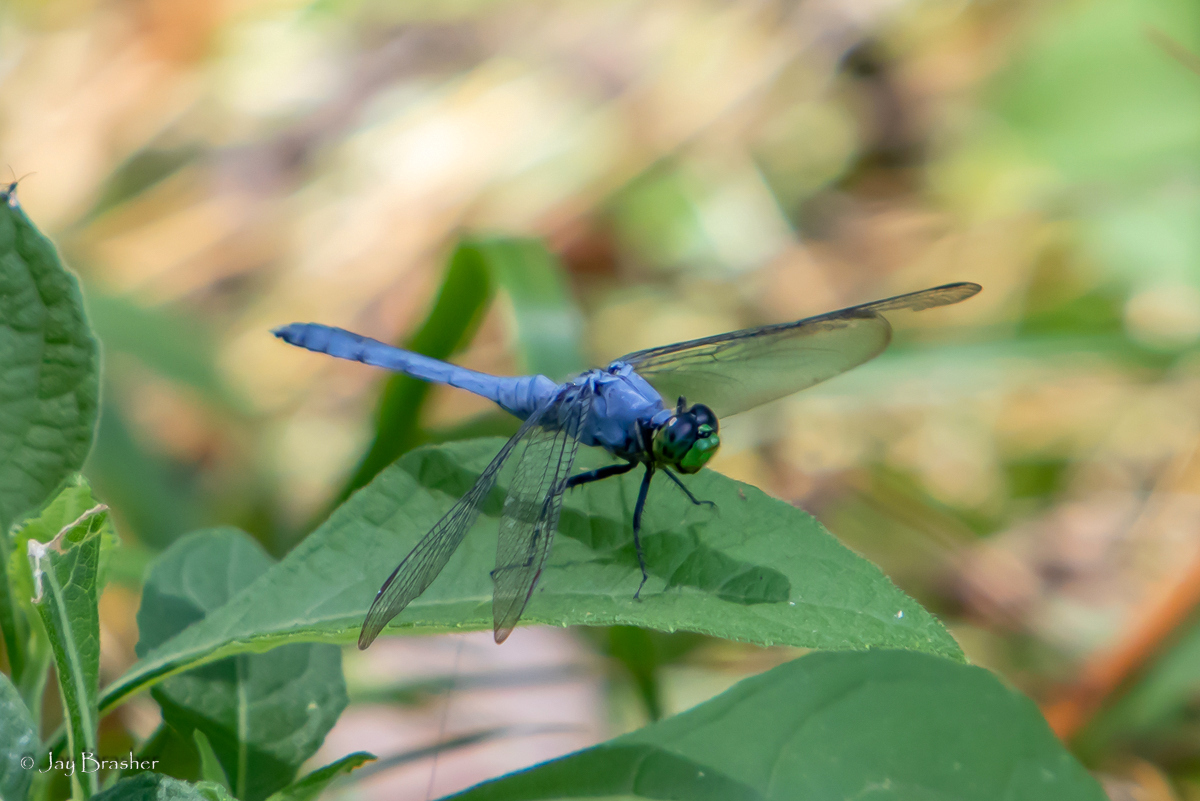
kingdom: Animalia
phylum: Arthropoda
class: Insecta
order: Odonata
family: Libellulidae
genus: Erythemis
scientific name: Erythemis simplicicollis
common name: Eastern pondhawk
